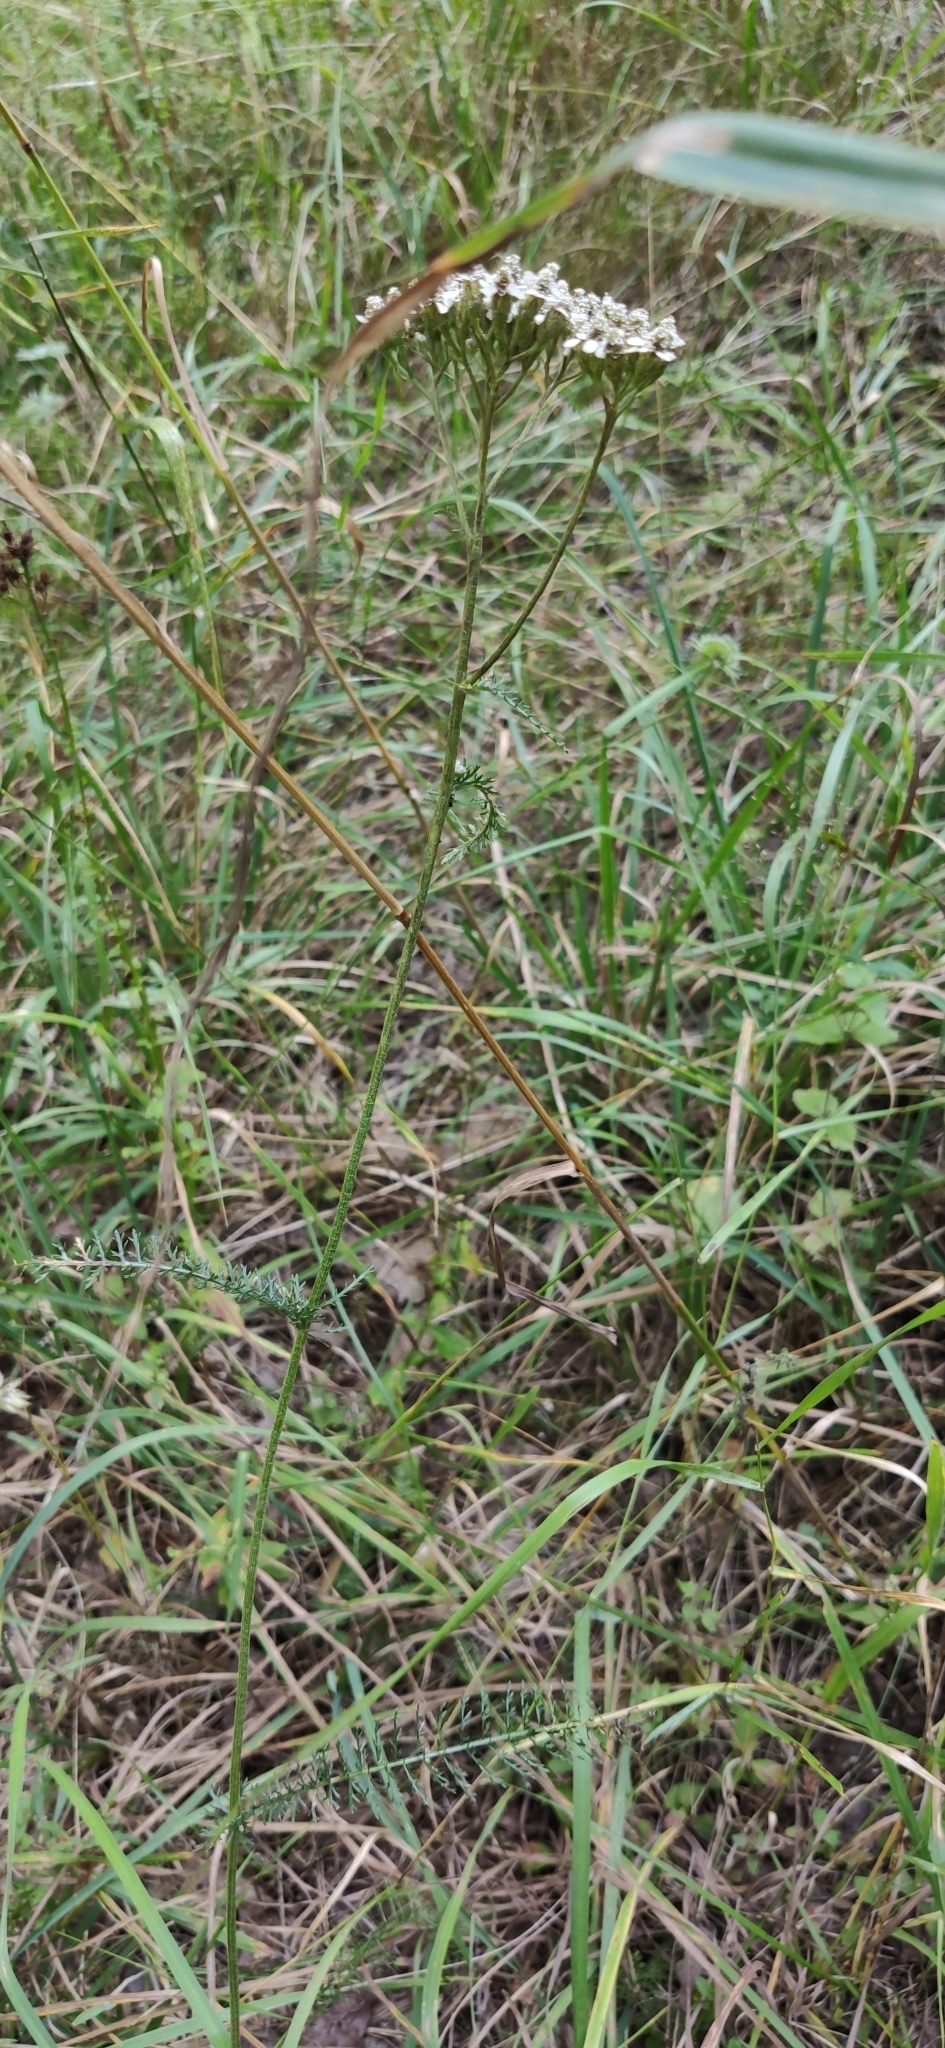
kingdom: Plantae
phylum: Tracheophyta
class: Magnoliopsida
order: Asterales
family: Asteraceae
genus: Achillea
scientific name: Achillea millefolium
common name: Yarrow
